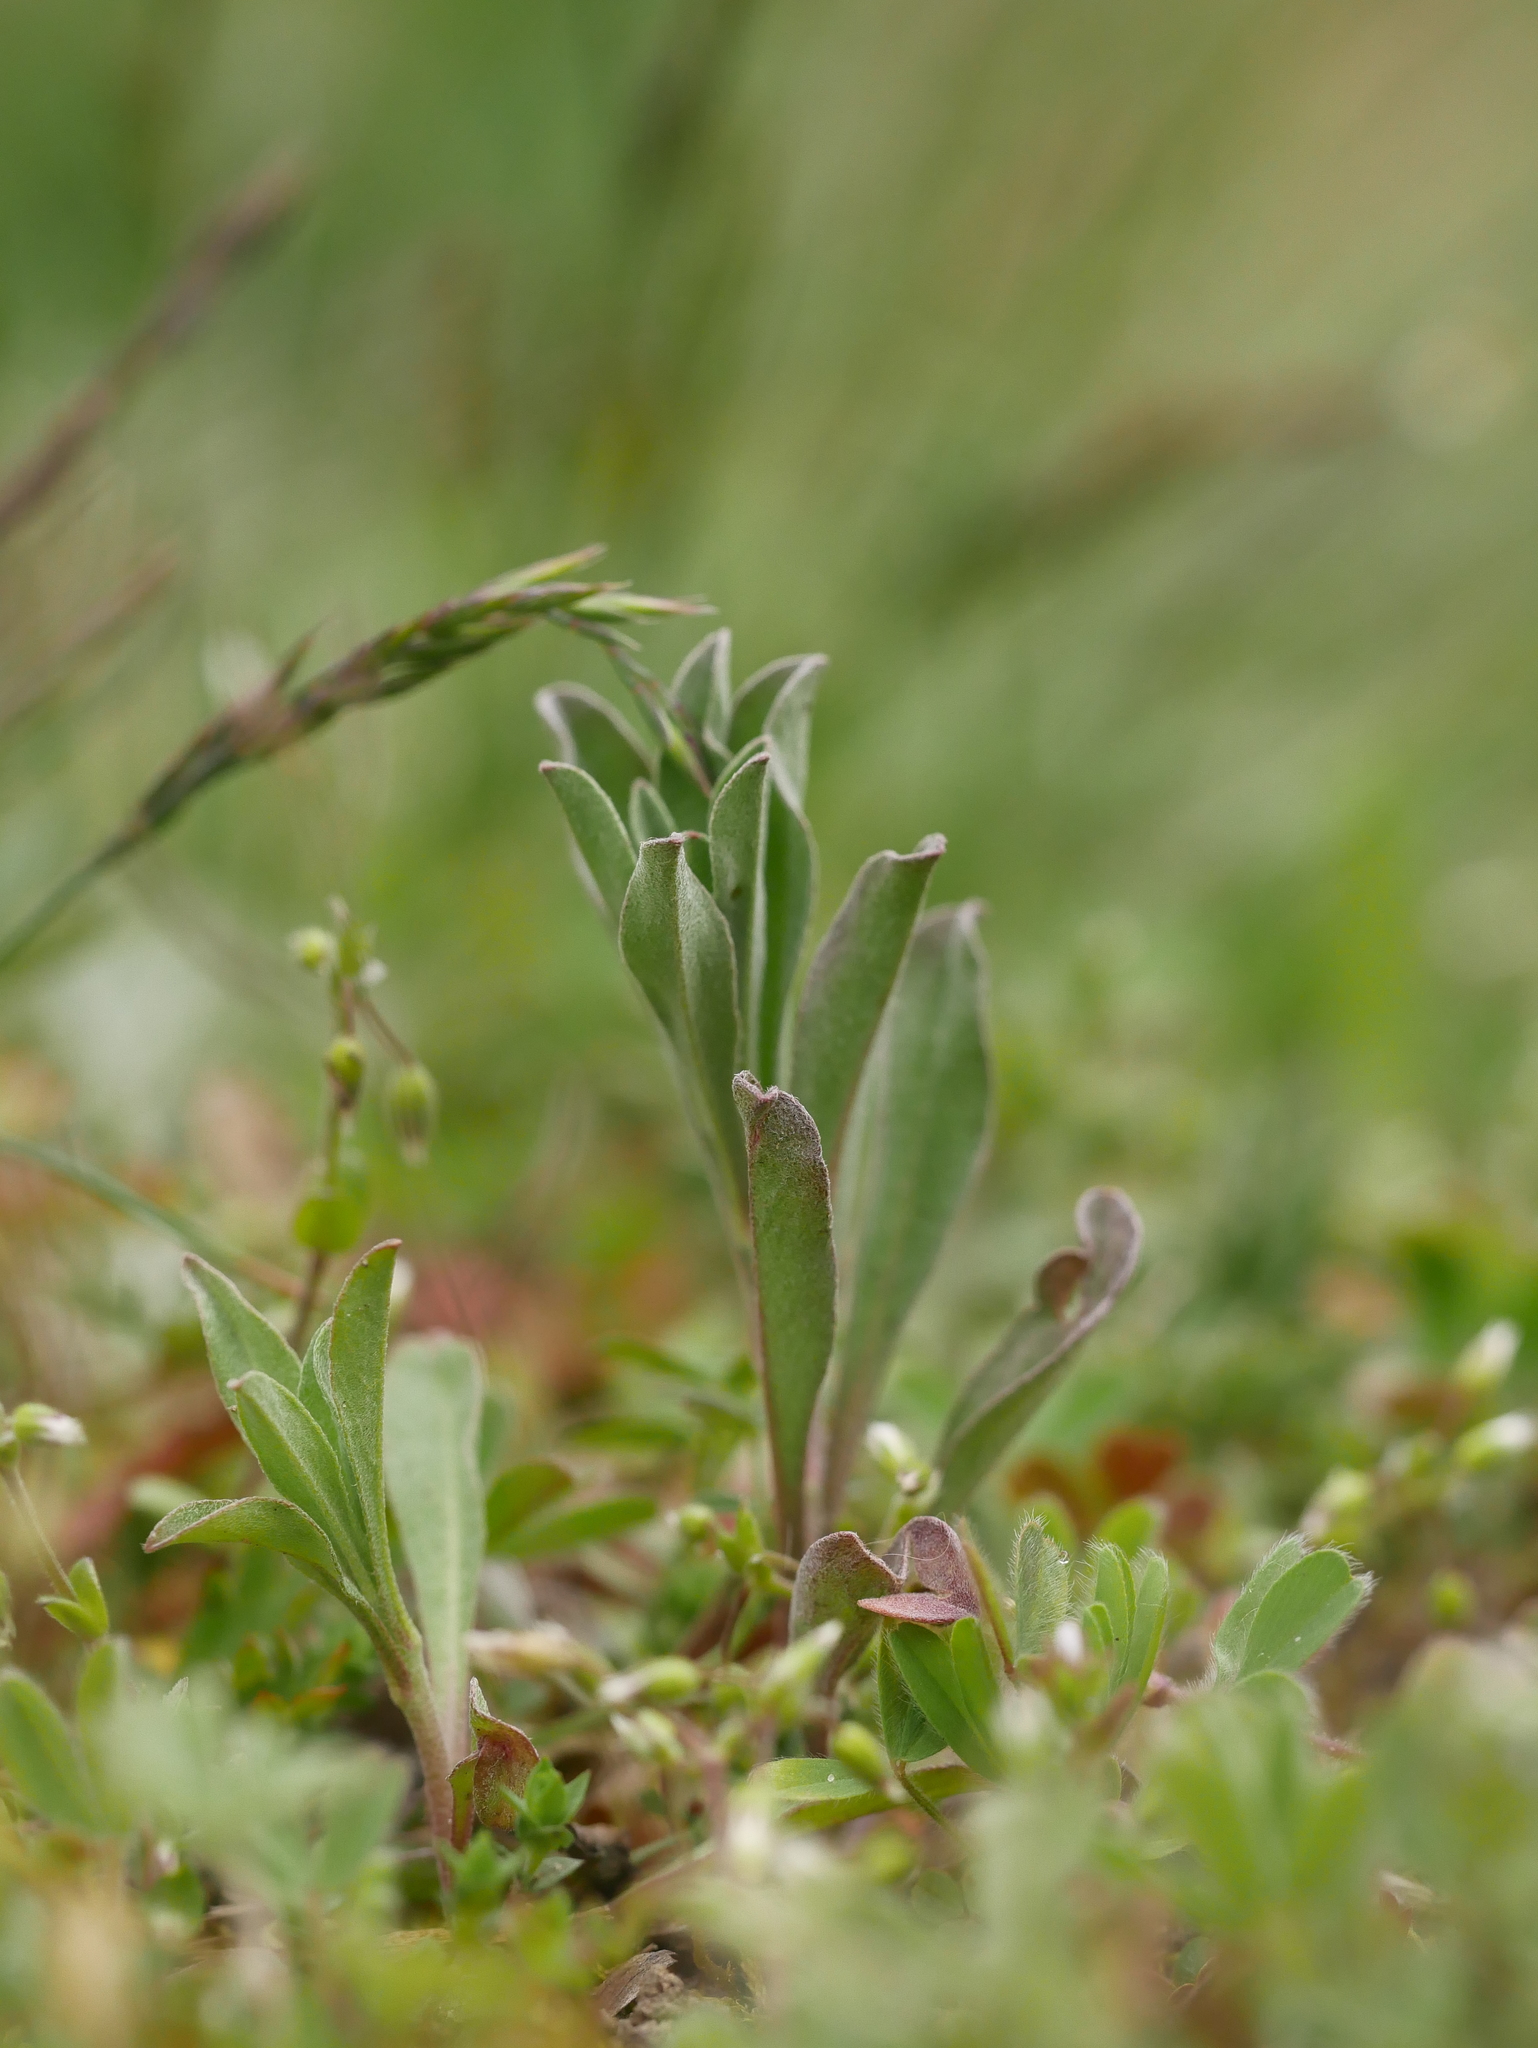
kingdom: Plantae
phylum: Tracheophyta
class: Magnoliopsida
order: Brassicales
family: Brassicaceae
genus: Berteroa
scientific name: Berteroa incana
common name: Hoary alison
